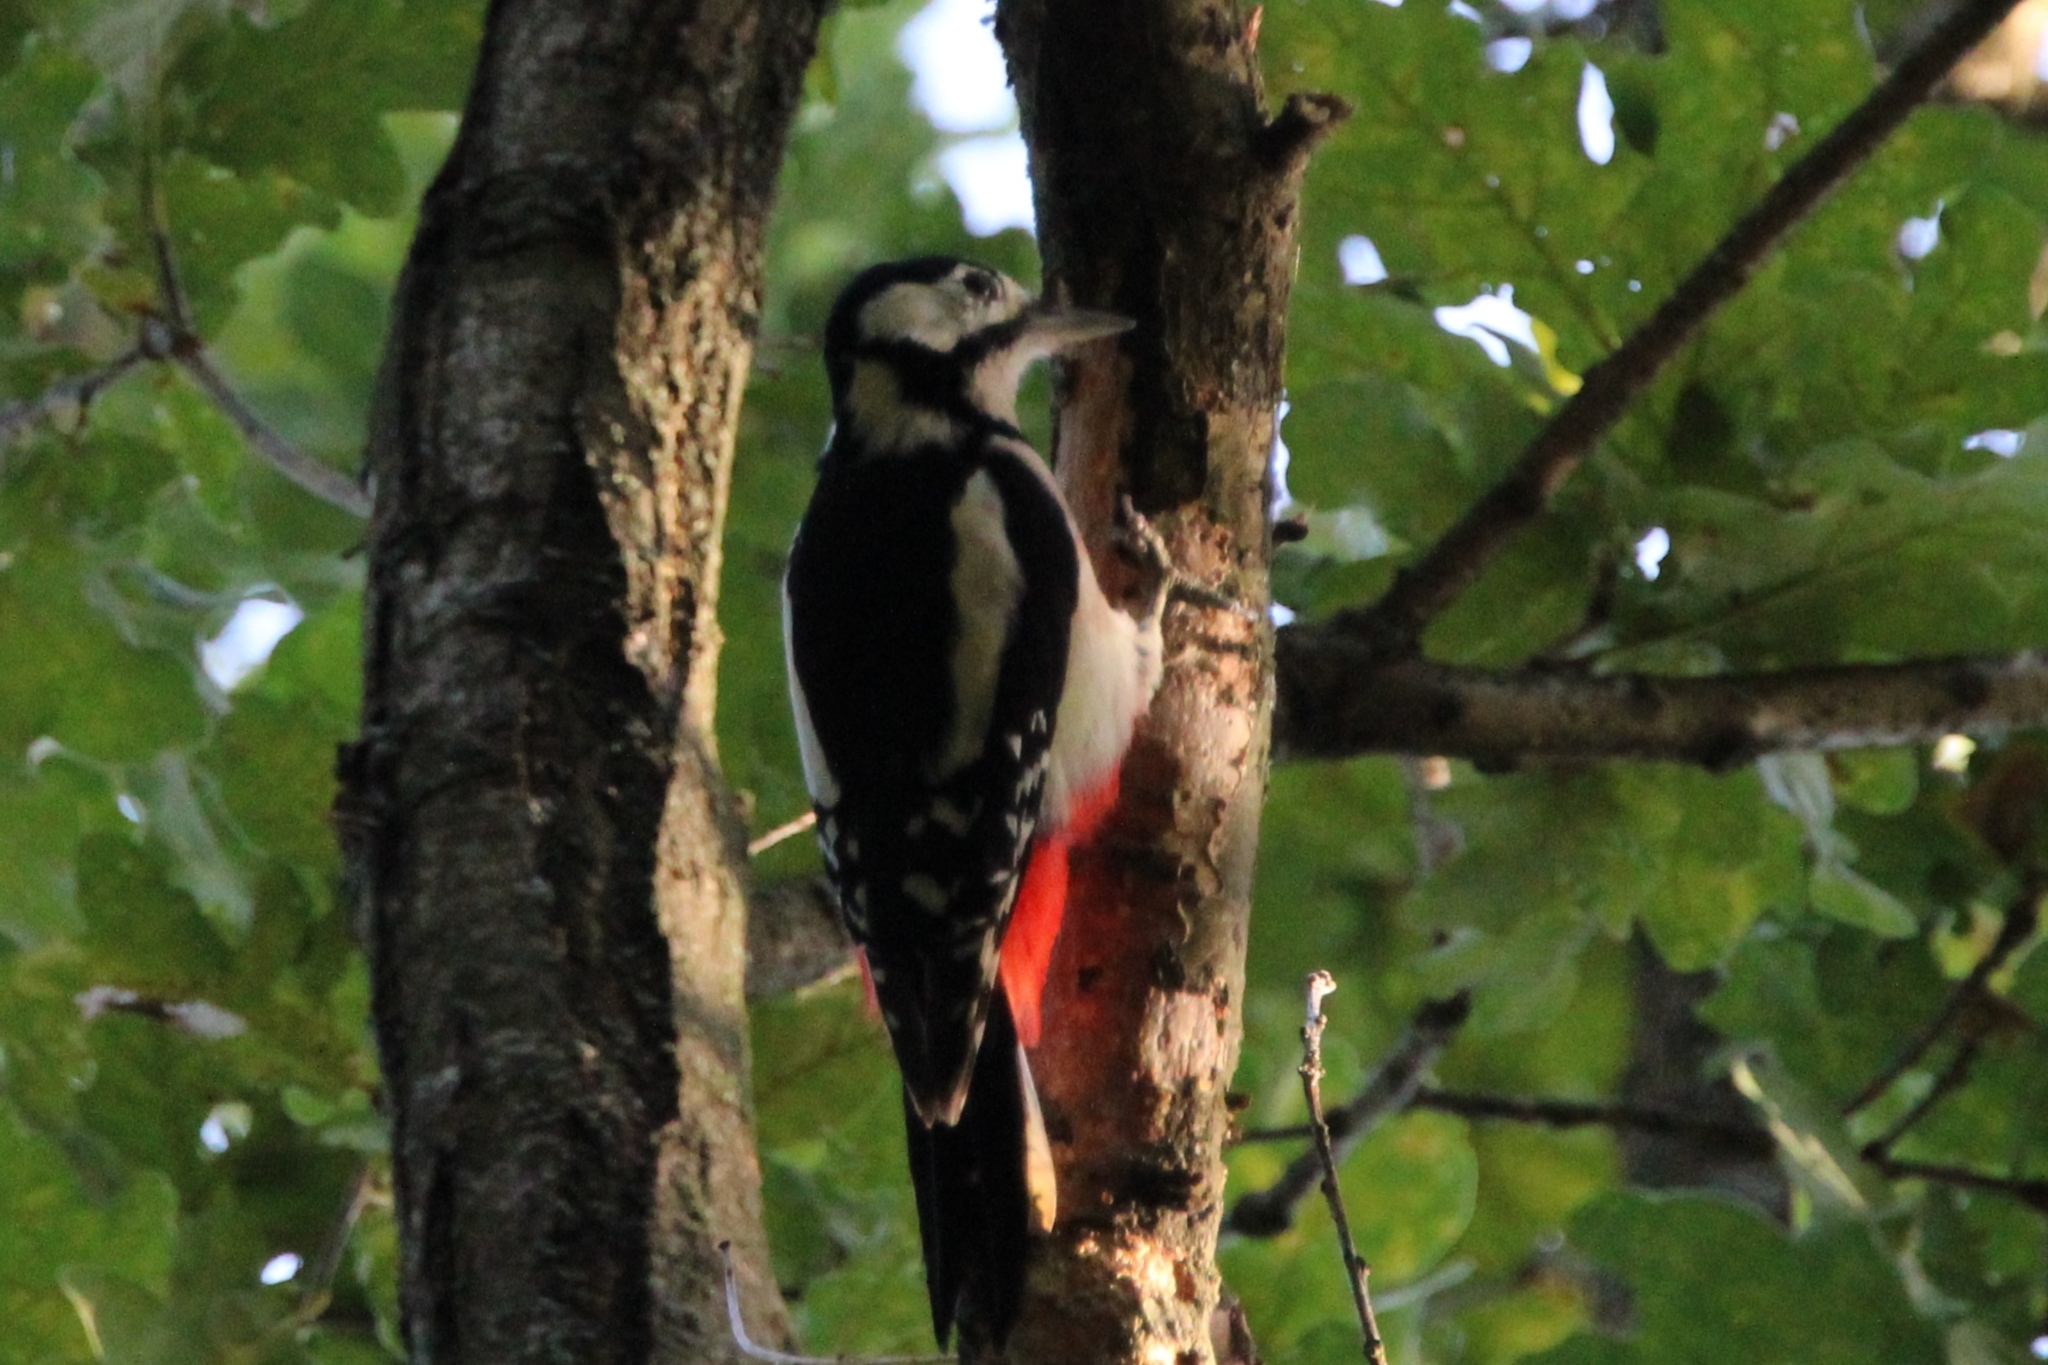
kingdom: Animalia
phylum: Chordata
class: Aves
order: Piciformes
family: Picidae
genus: Dendrocopos
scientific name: Dendrocopos major
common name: Great spotted woodpecker
